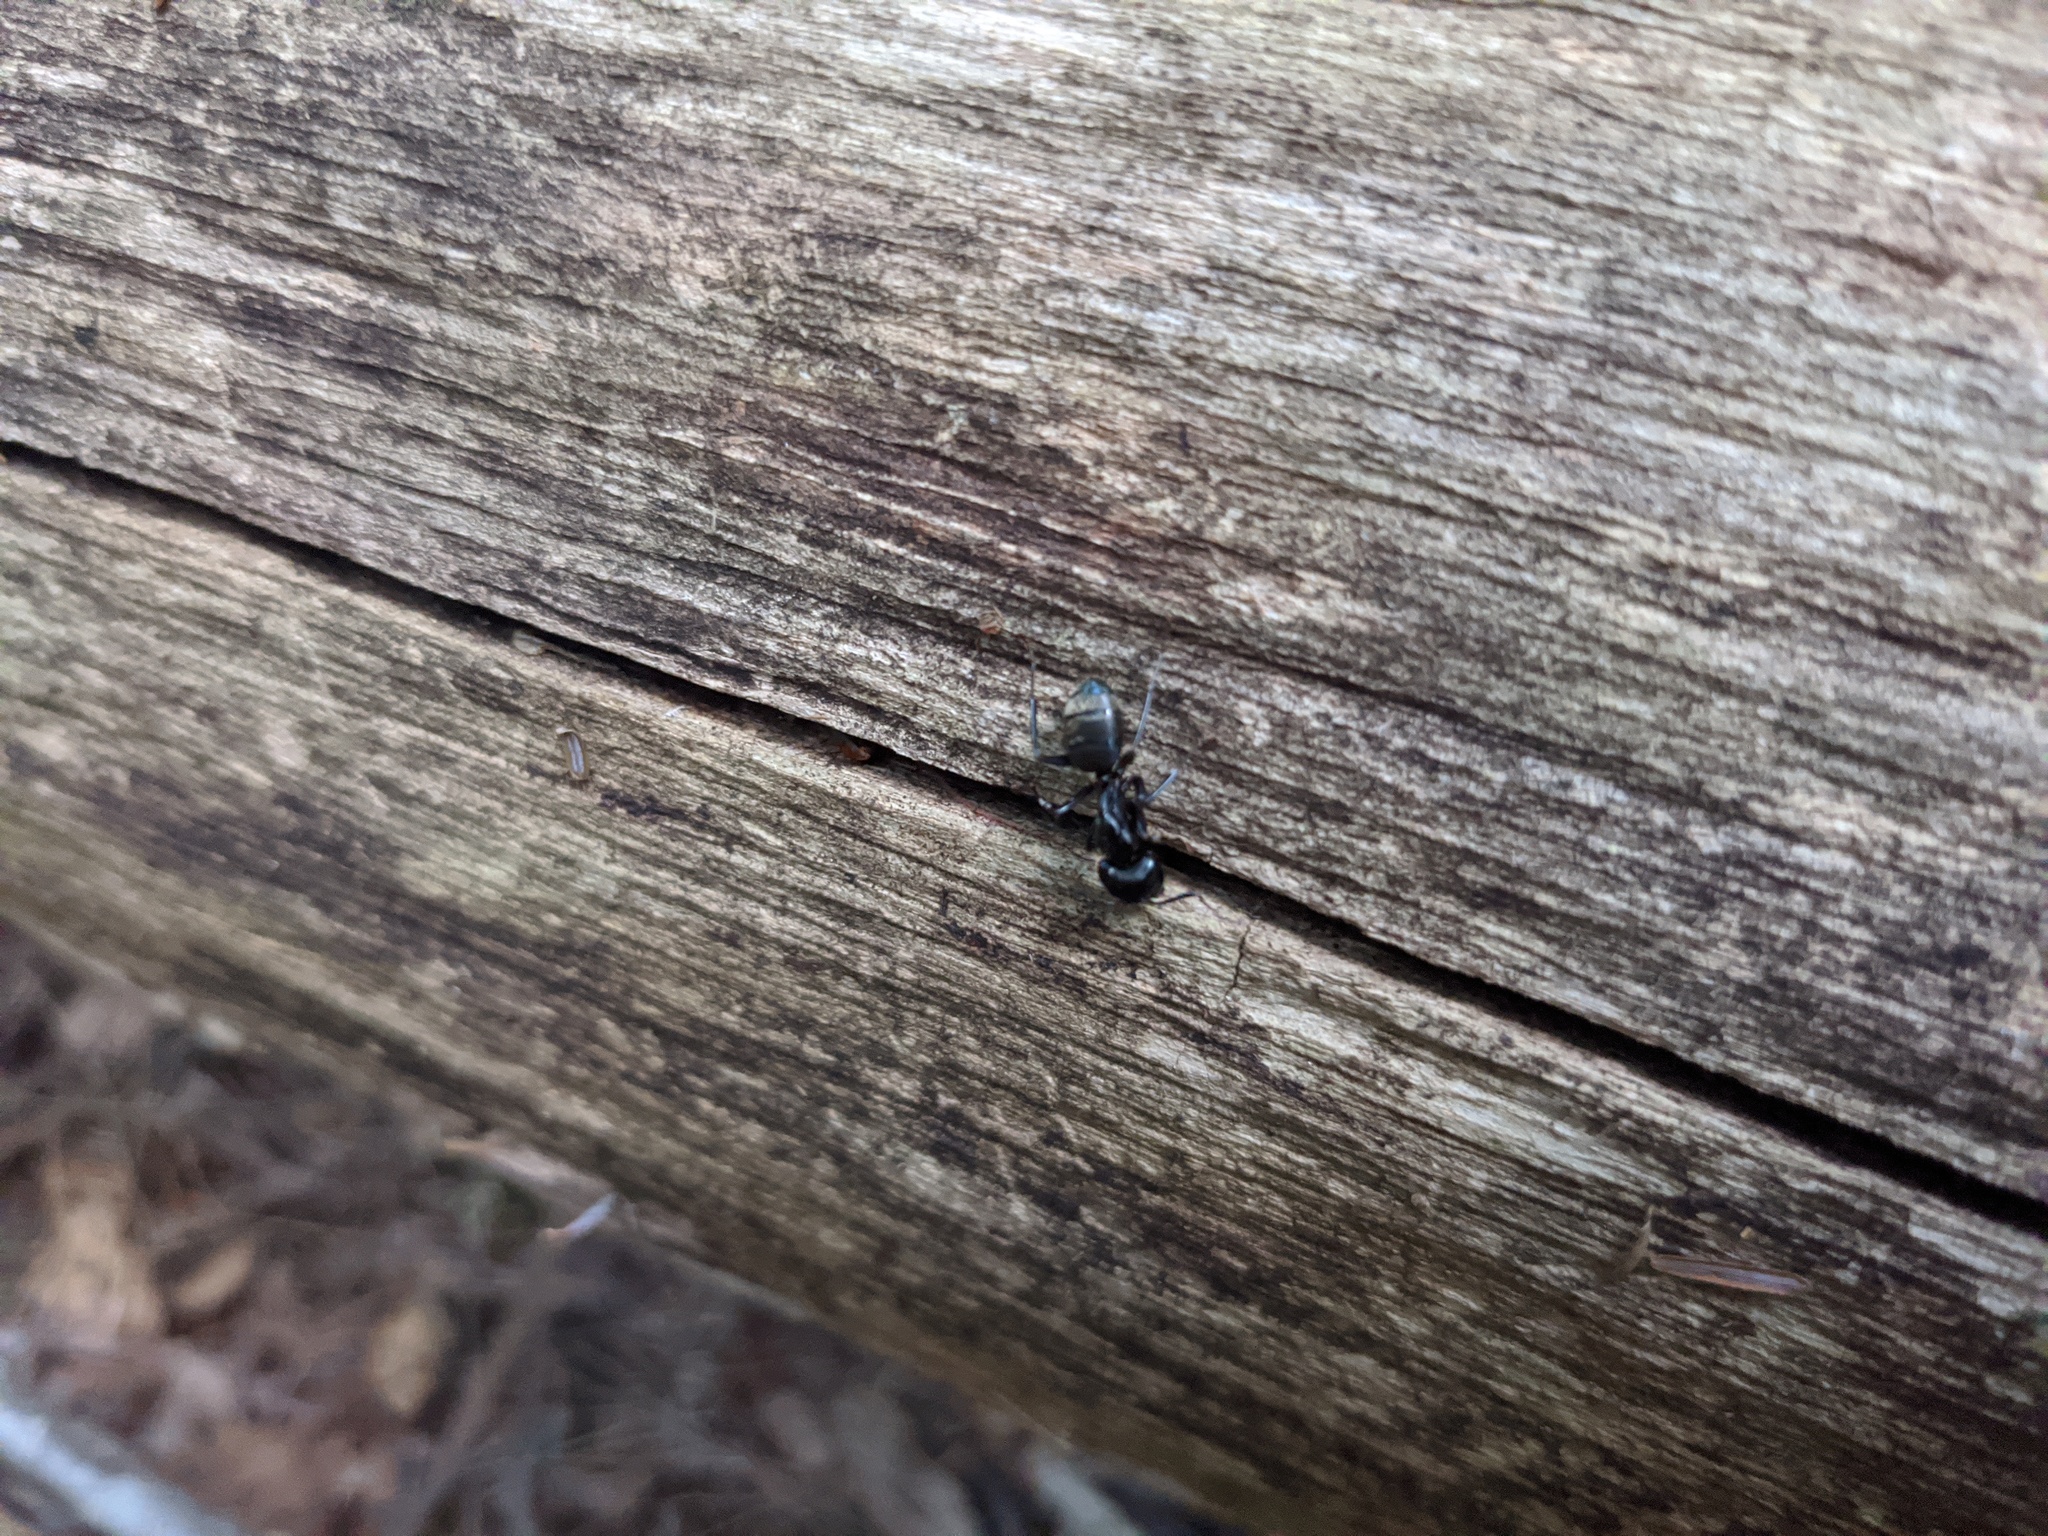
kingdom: Animalia
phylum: Arthropoda
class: Insecta
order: Hymenoptera
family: Formicidae
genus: Camponotus
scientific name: Camponotus pennsylvanicus
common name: Black carpenter ant
